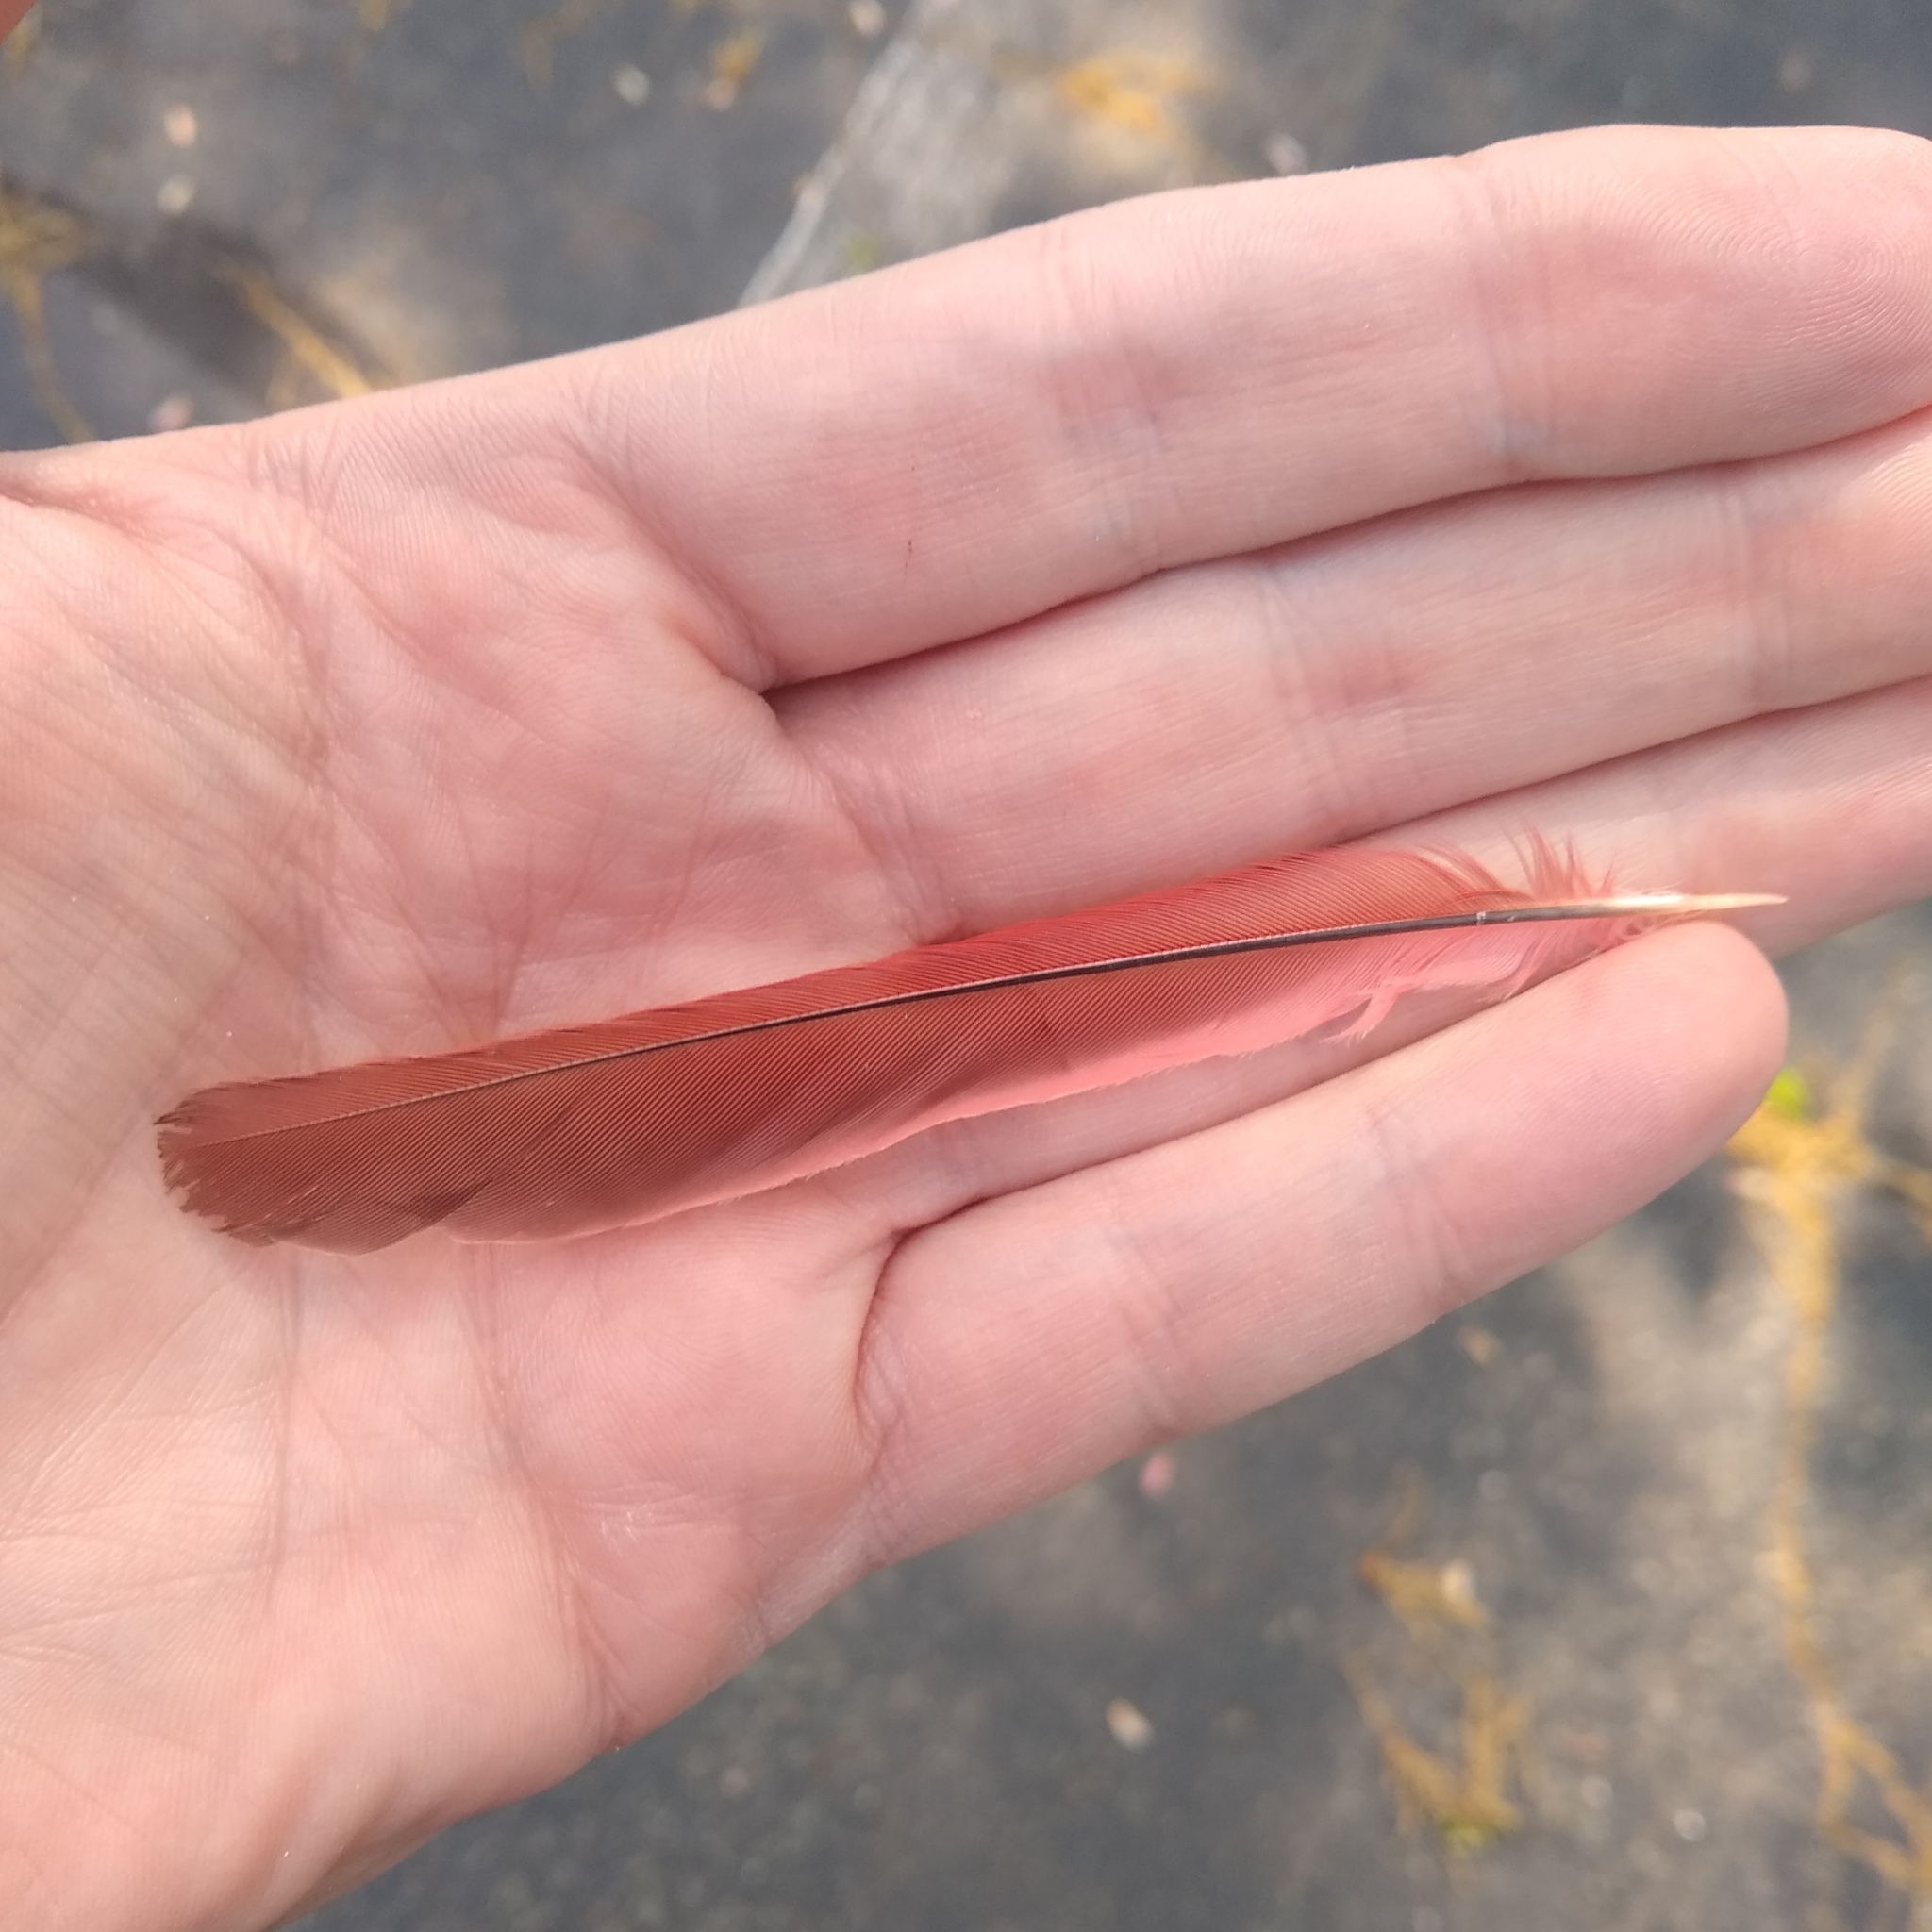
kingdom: Animalia
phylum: Chordata
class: Aves
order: Passeriformes
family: Cardinalidae
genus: Cardinalis
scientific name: Cardinalis cardinalis
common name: Northern cardinal
